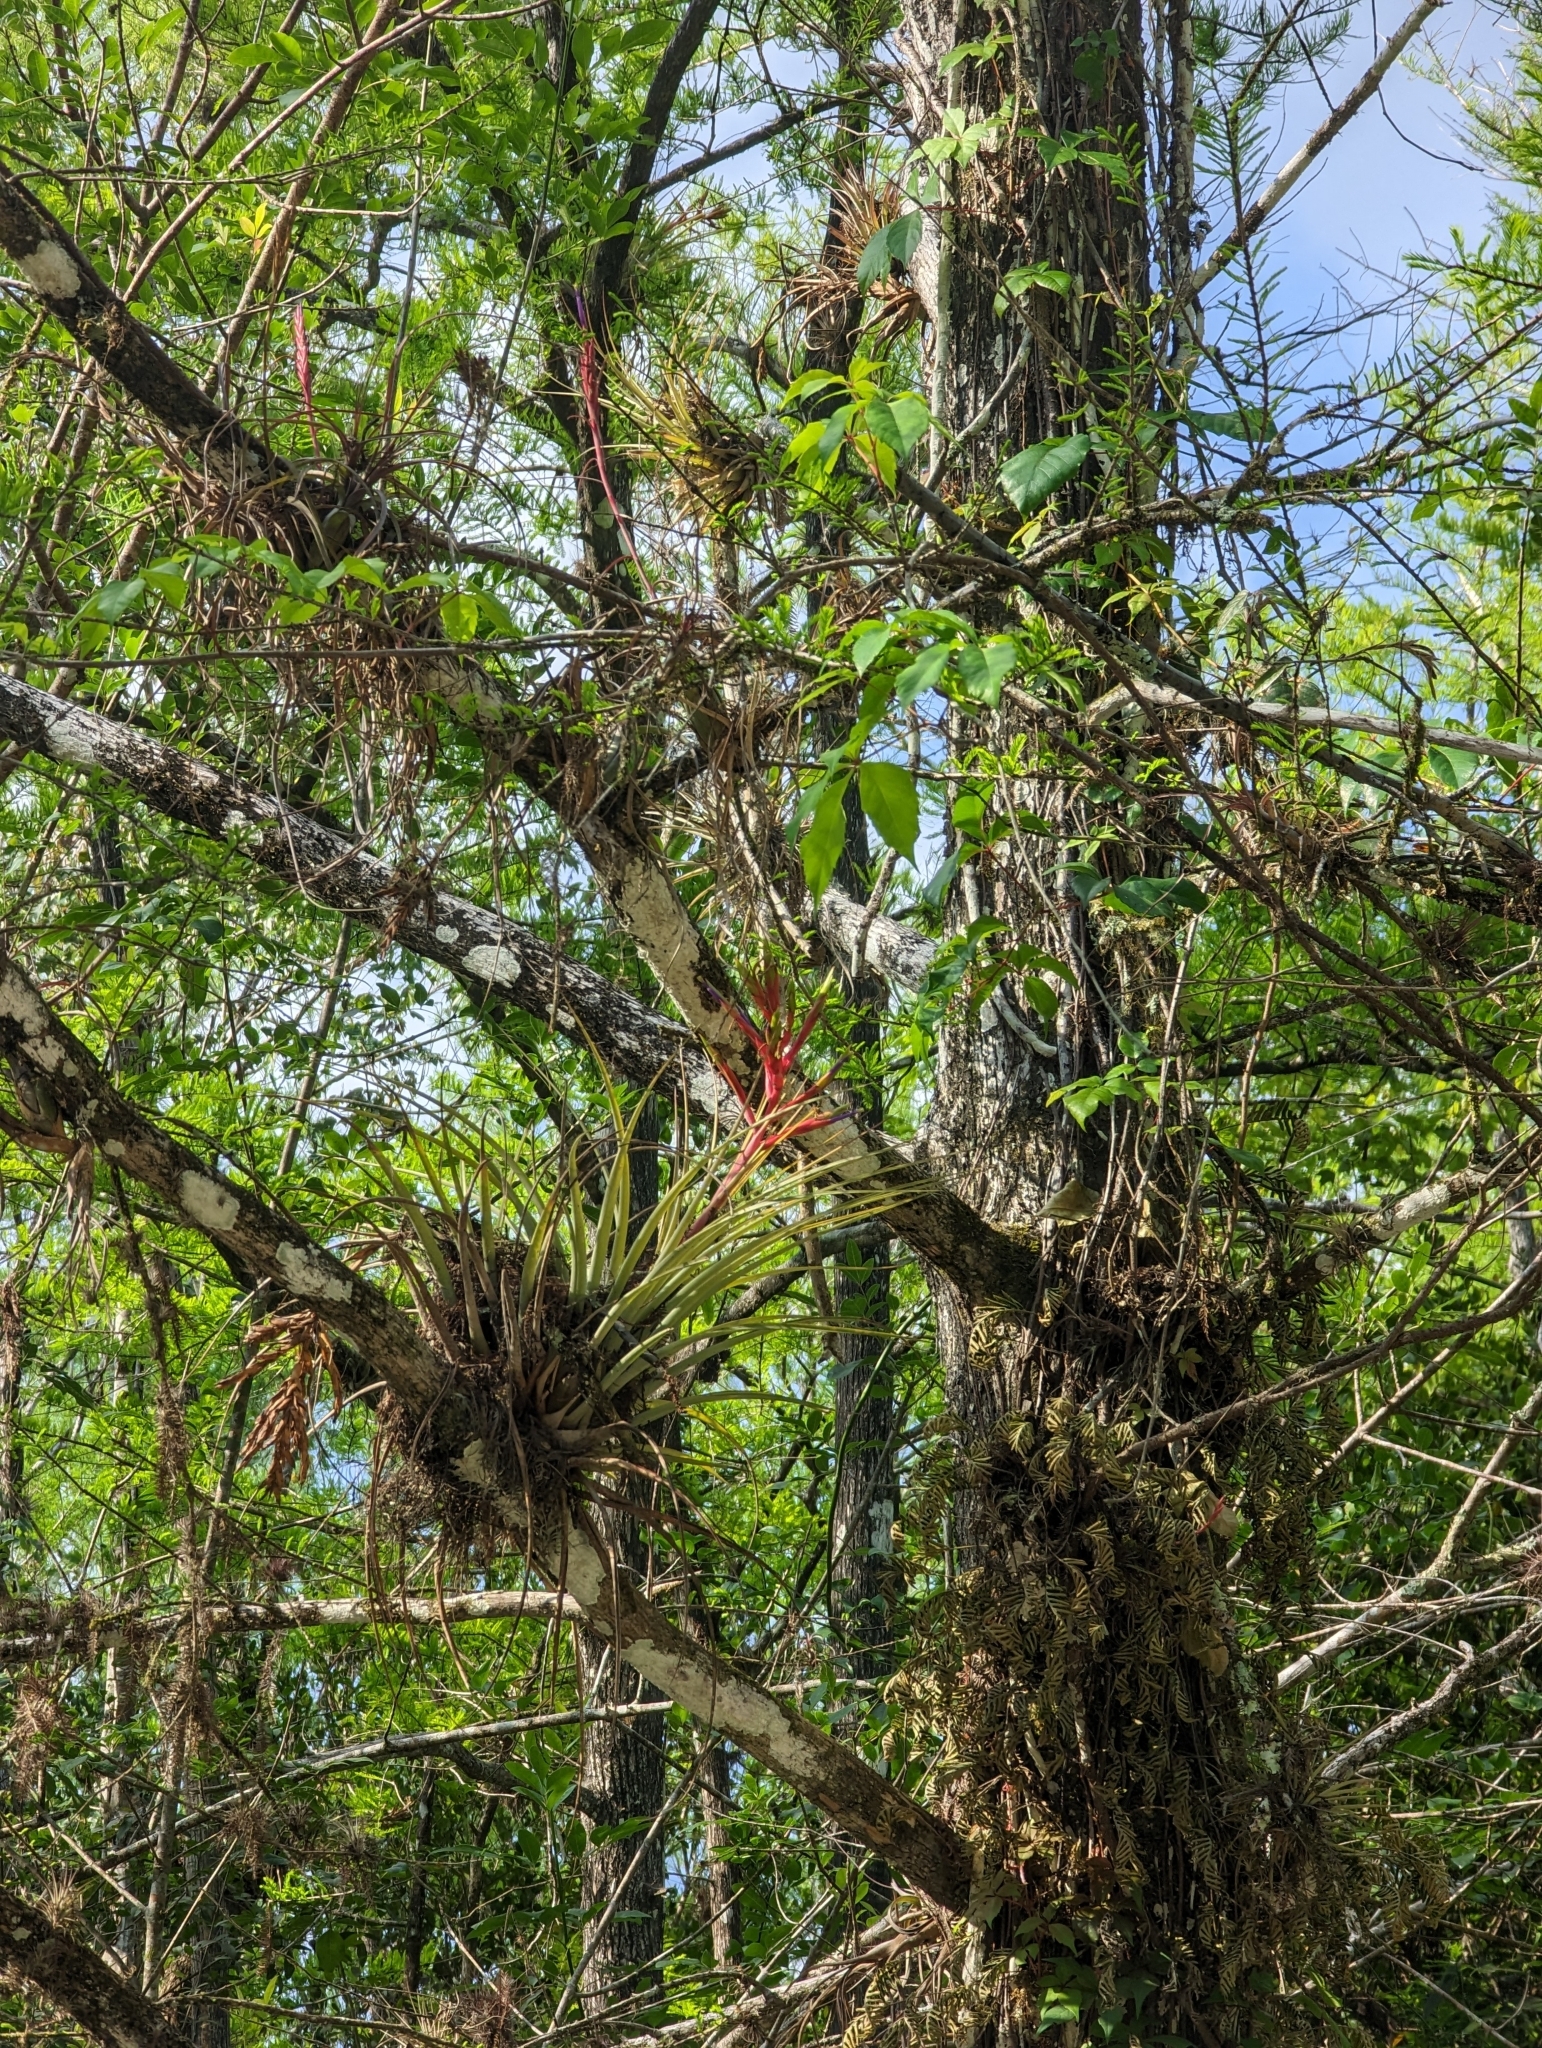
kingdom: Plantae
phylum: Tracheophyta
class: Liliopsida
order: Poales
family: Bromeliaceae
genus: Tillandsia
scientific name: Tillandsia fasciculata
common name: Giant airplant
